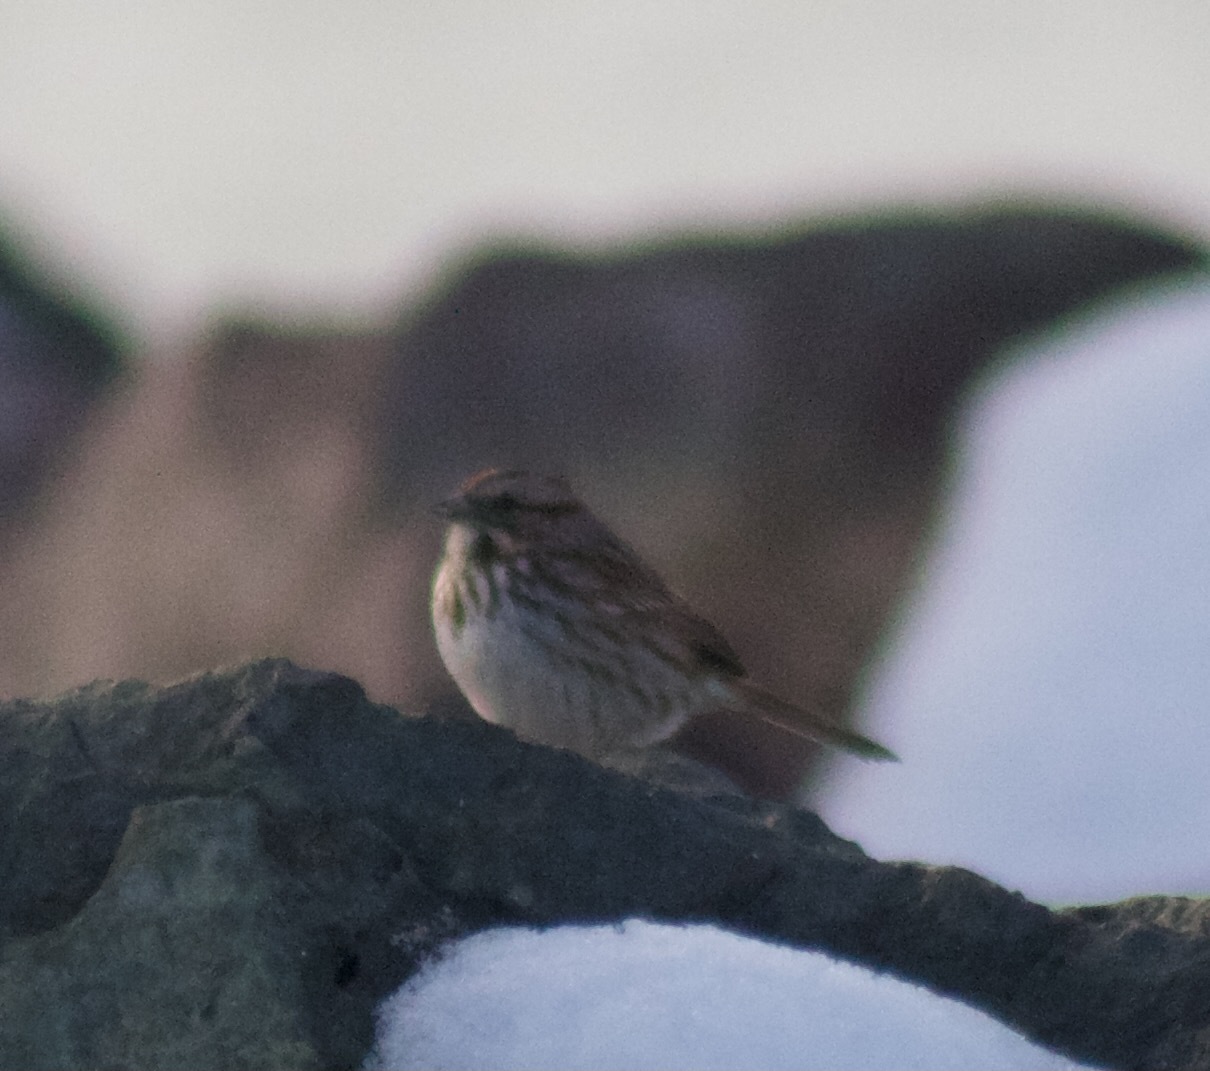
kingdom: Animalia
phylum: Chordata
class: Aves
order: Passeriformes
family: Passerellidae
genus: Melospiza
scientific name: Melospiza melodia
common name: Song sparrow
